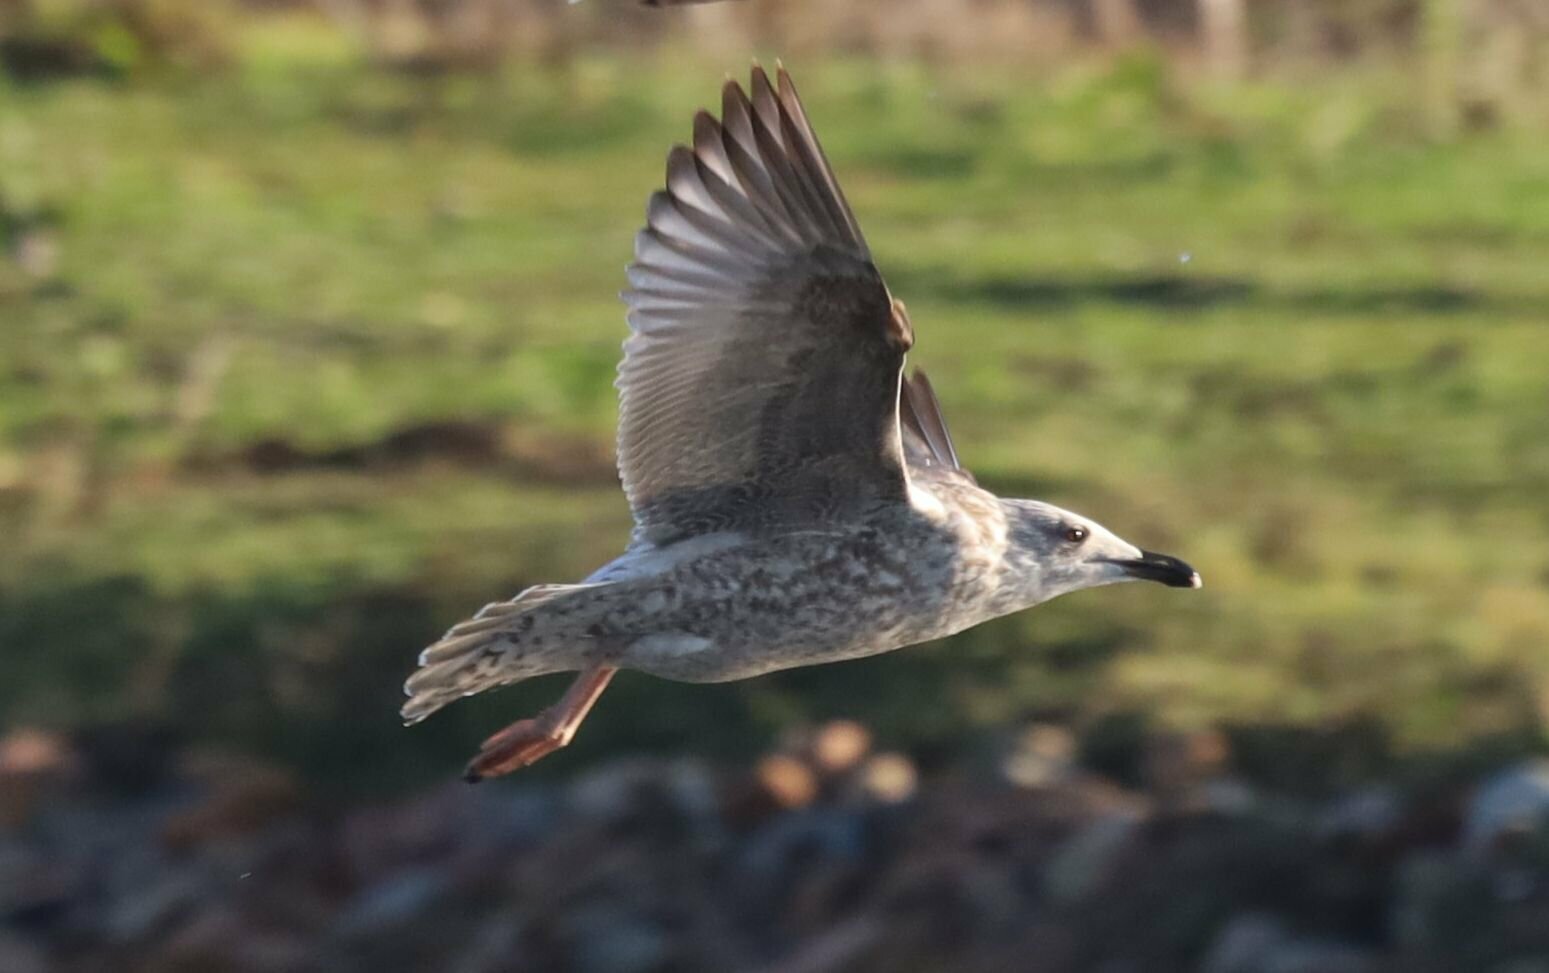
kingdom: Animalia
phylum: Chordata
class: Aves
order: Charadriiformes
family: Laridae
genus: Larus
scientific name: Larus argentatus
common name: Herring gull
